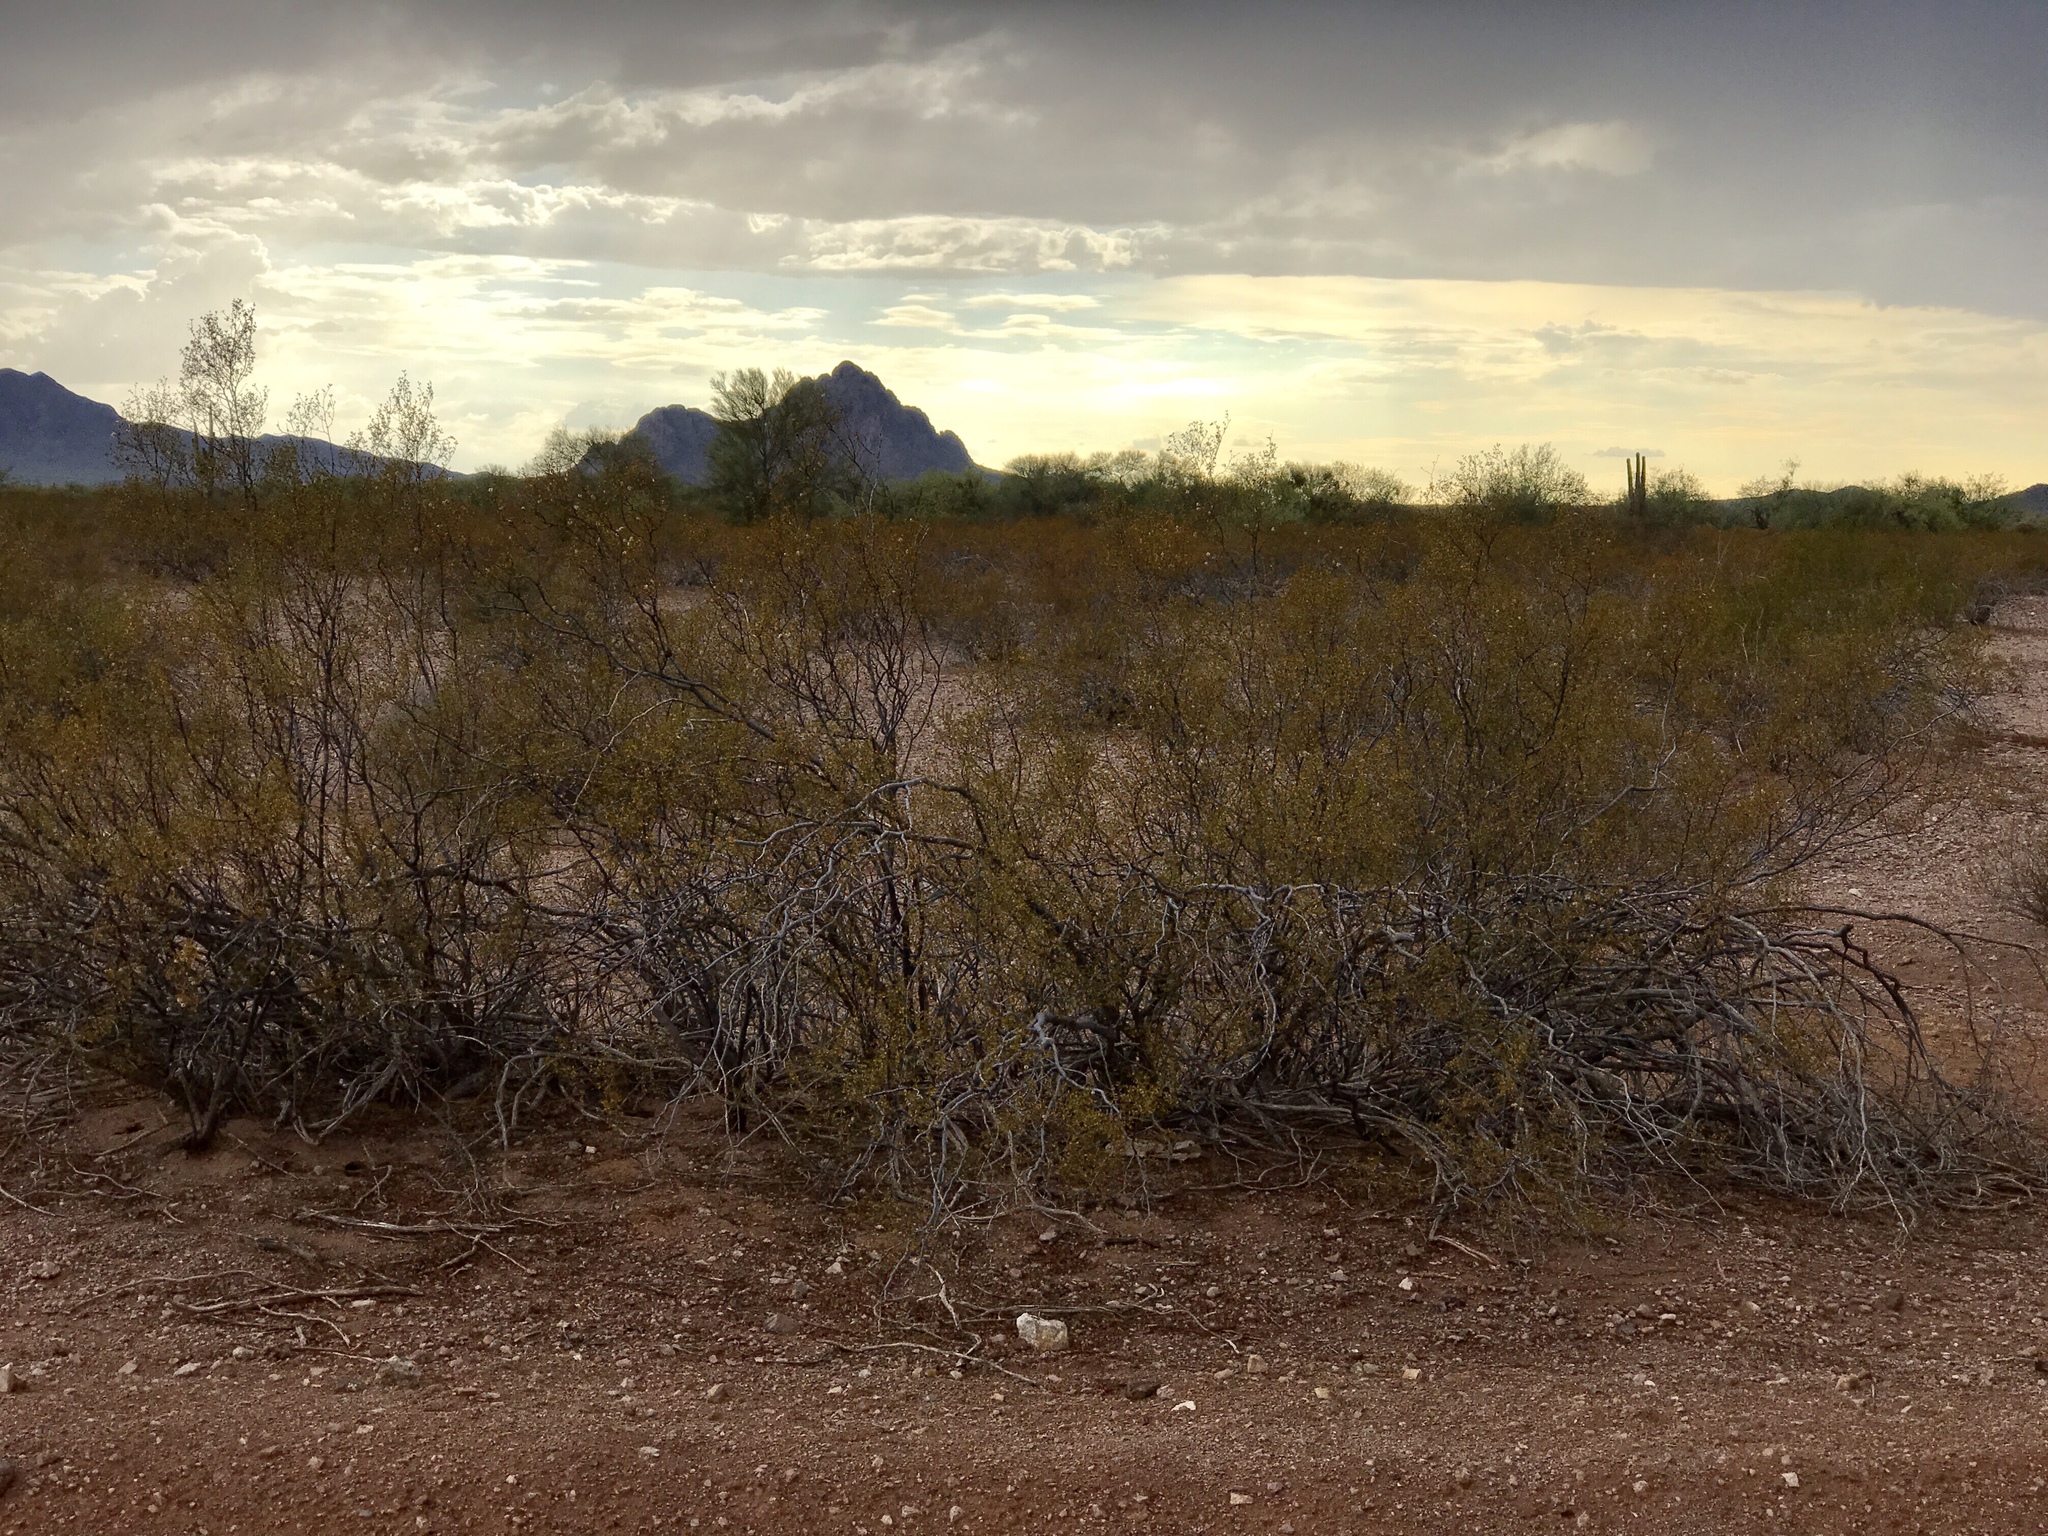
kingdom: Plantae
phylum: Tracheophyta
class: Magnoliopsida
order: Zygophyllales
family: Zygophyllaceae
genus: Larrea
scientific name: Larrea tridentata
